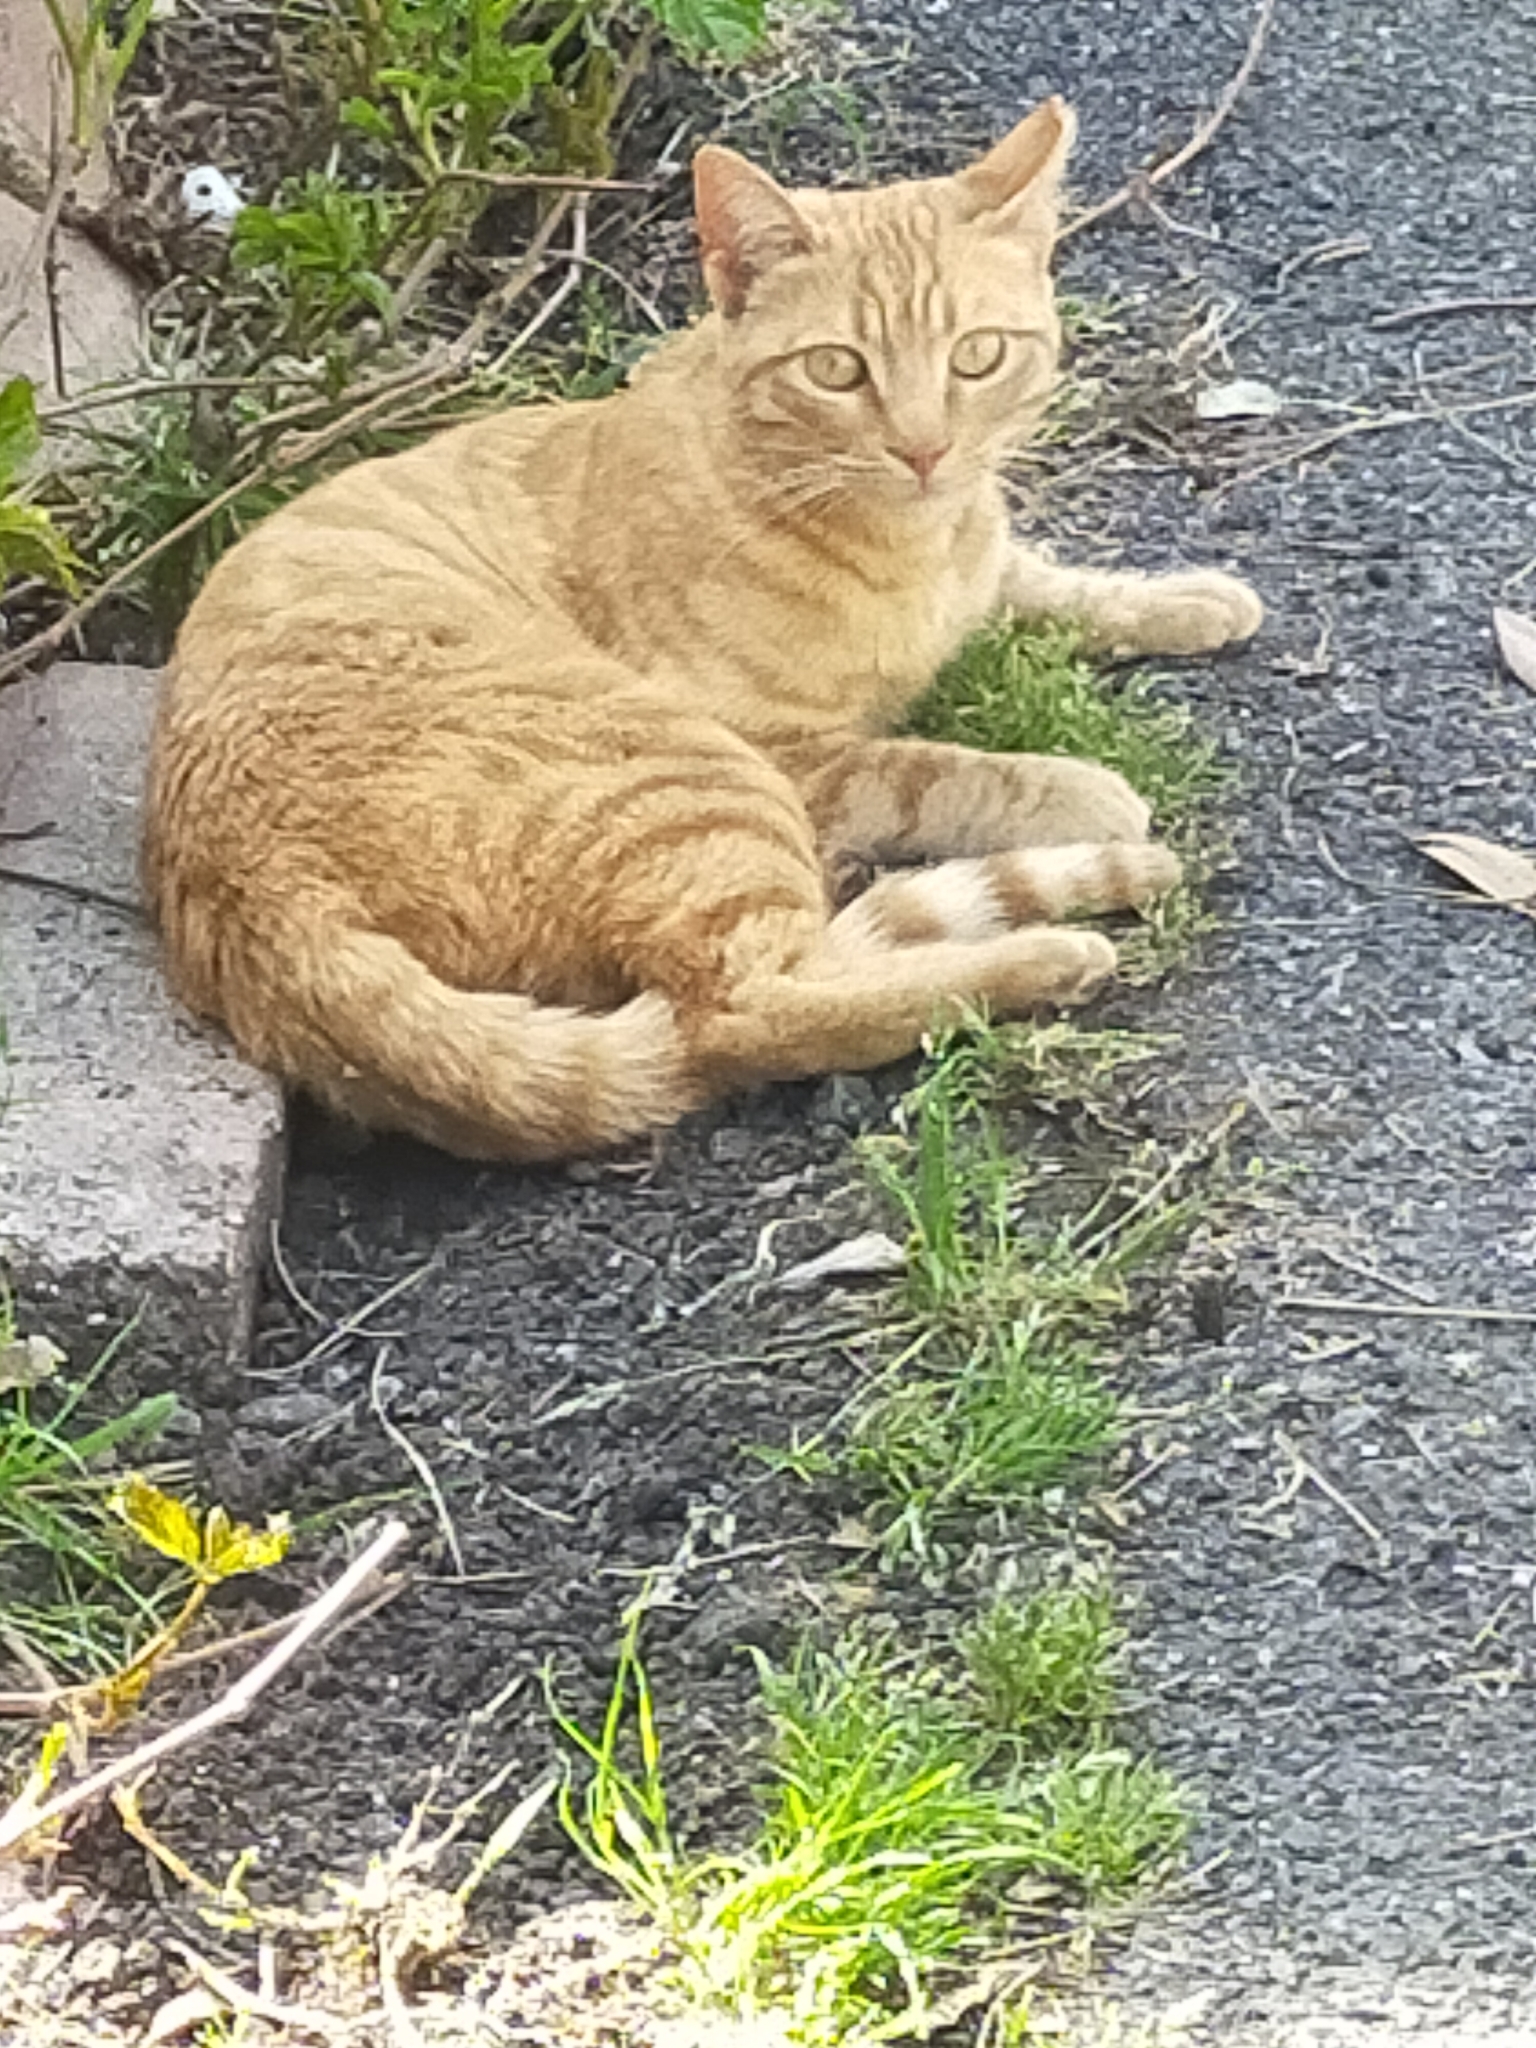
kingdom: Animalia
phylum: Chordata
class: Mammalia
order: Carnivora
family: Felidae
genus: Felis
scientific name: Felis catus
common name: Domestic cat
